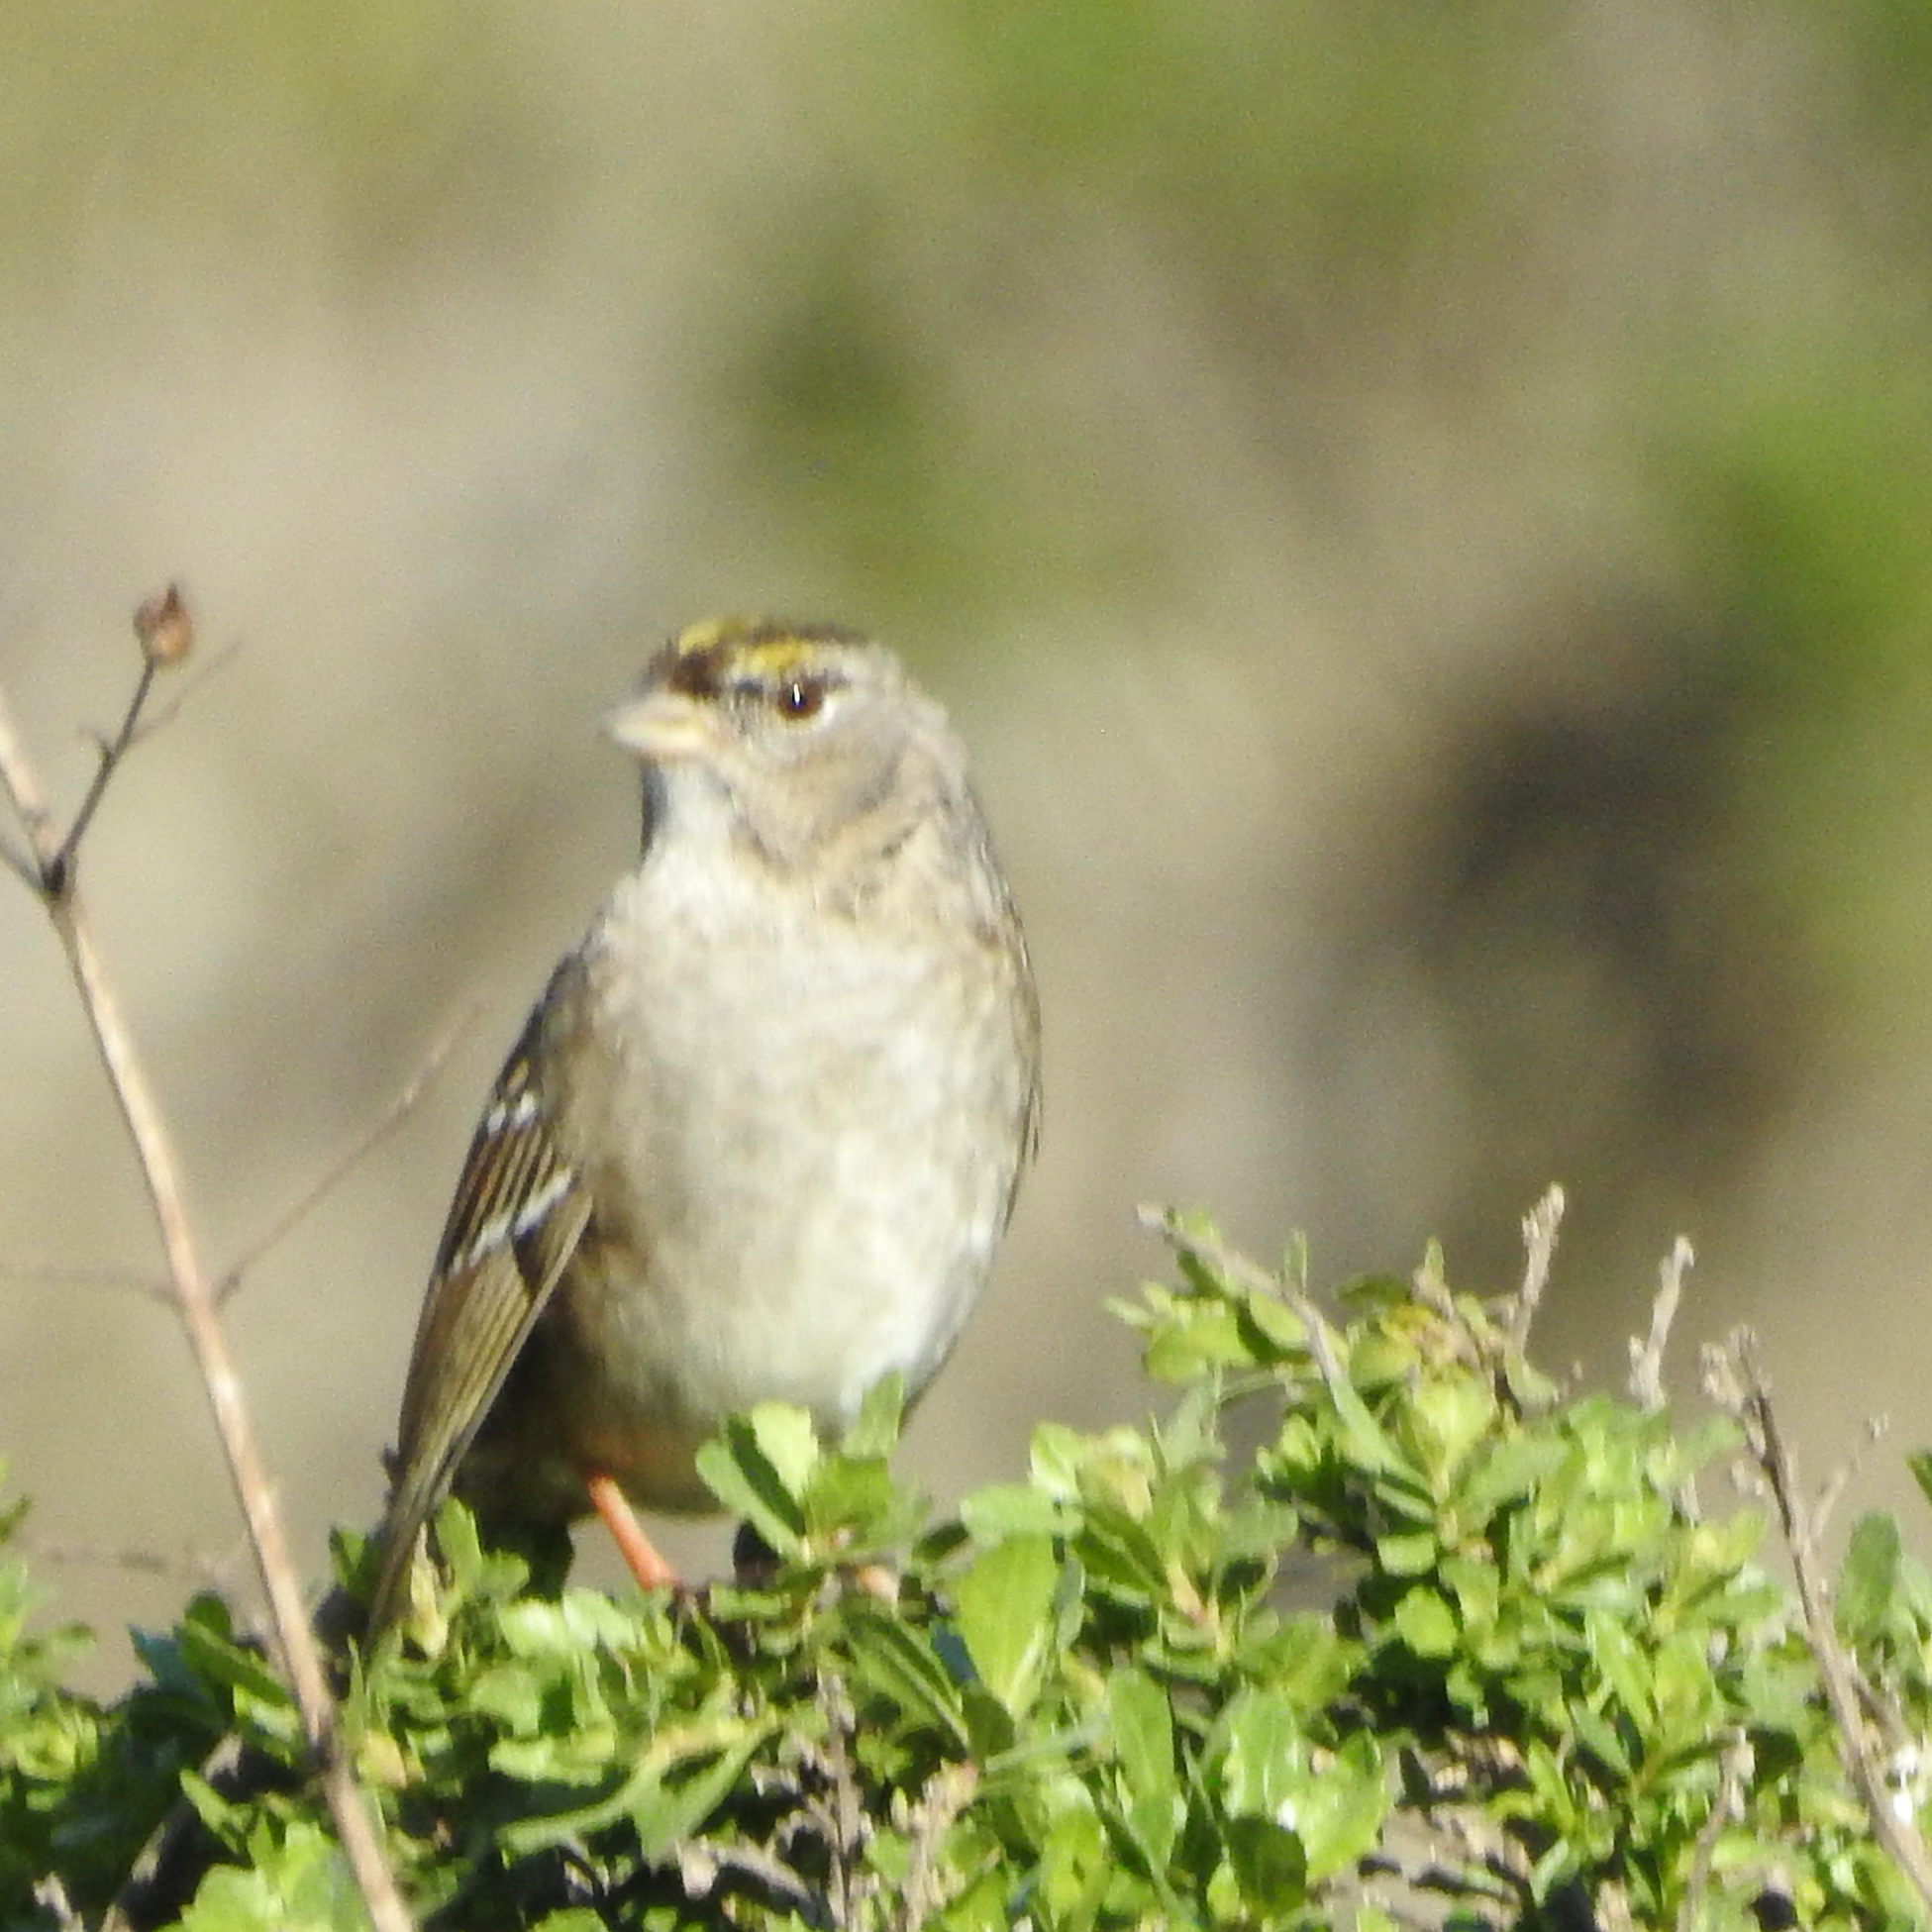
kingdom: Animalia
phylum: Chordata
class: Aves
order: Passeriformes
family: Passerellidae
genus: Zonotrichia
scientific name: Zonotrichia atricapilla
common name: Golden-crowned sparrow
